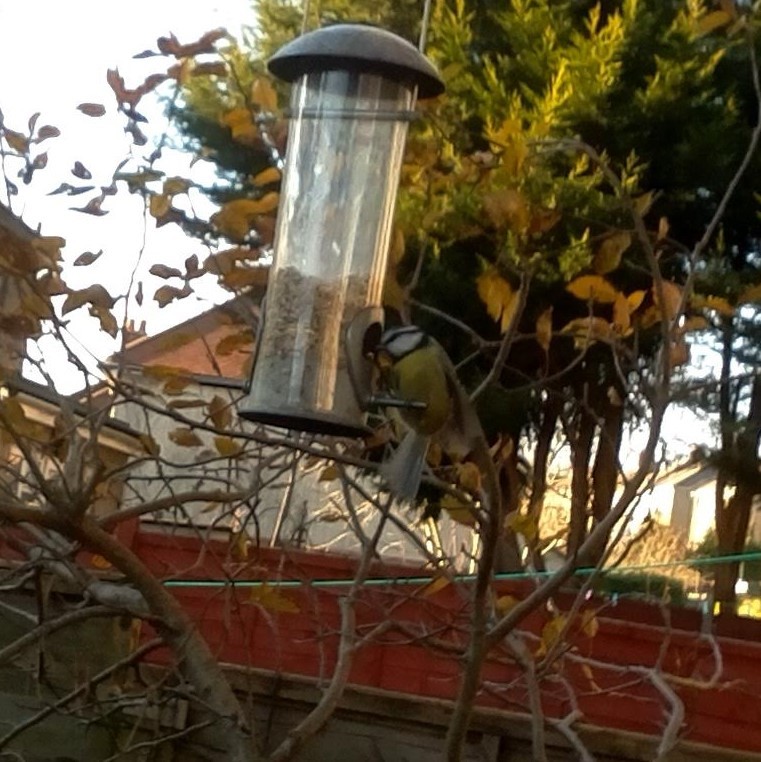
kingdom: Animalia
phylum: Chordata
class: Aves
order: Passeriformes
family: Paridae
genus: Cyanistes
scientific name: Cyanistes caeruleus
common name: Eurasian blue tit
